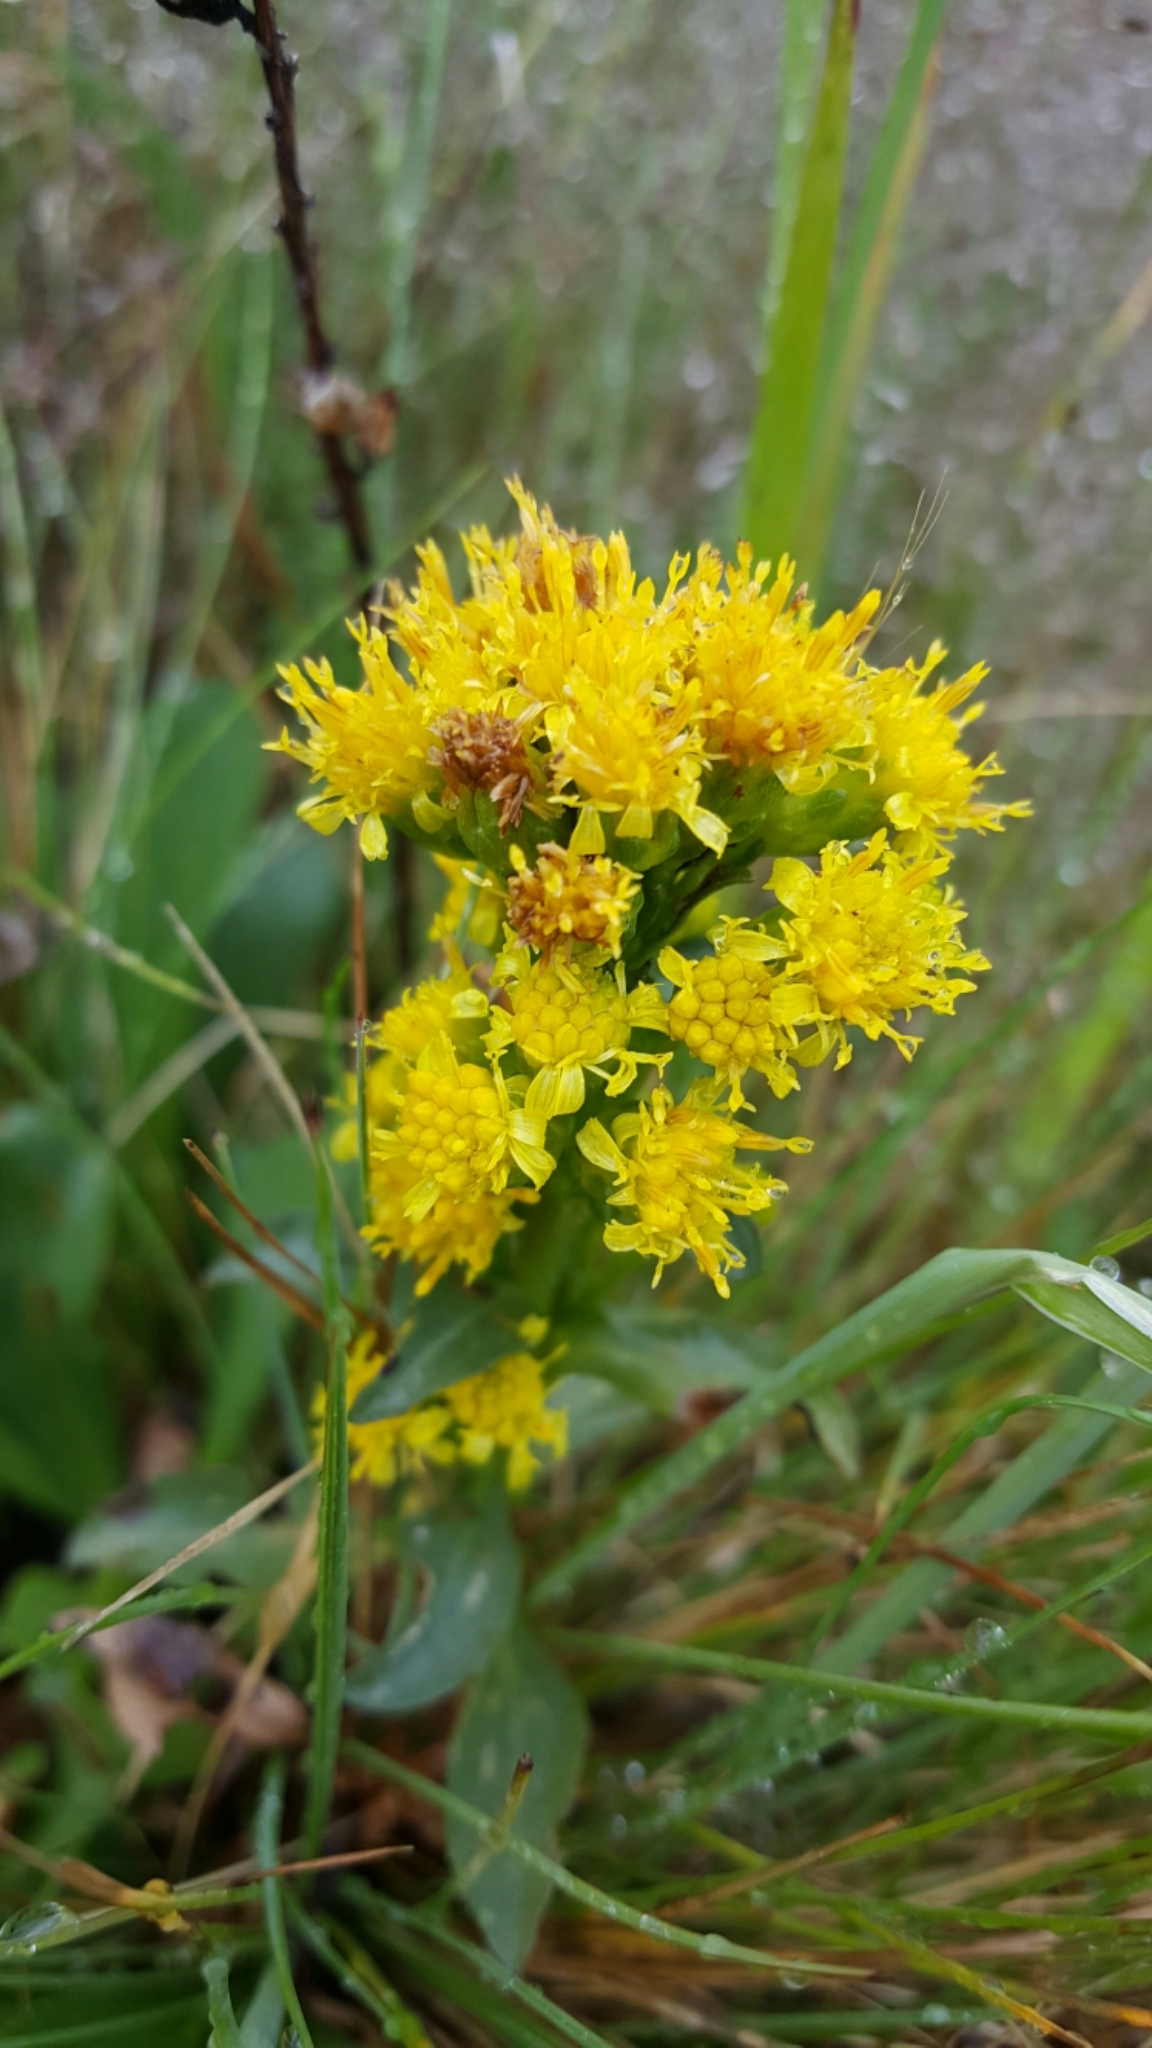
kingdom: Plantae
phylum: Tracheophyta
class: Magnoliopsida
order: Asterales
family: Asteraceae
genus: Senecio
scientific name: Senecio aronicoides
